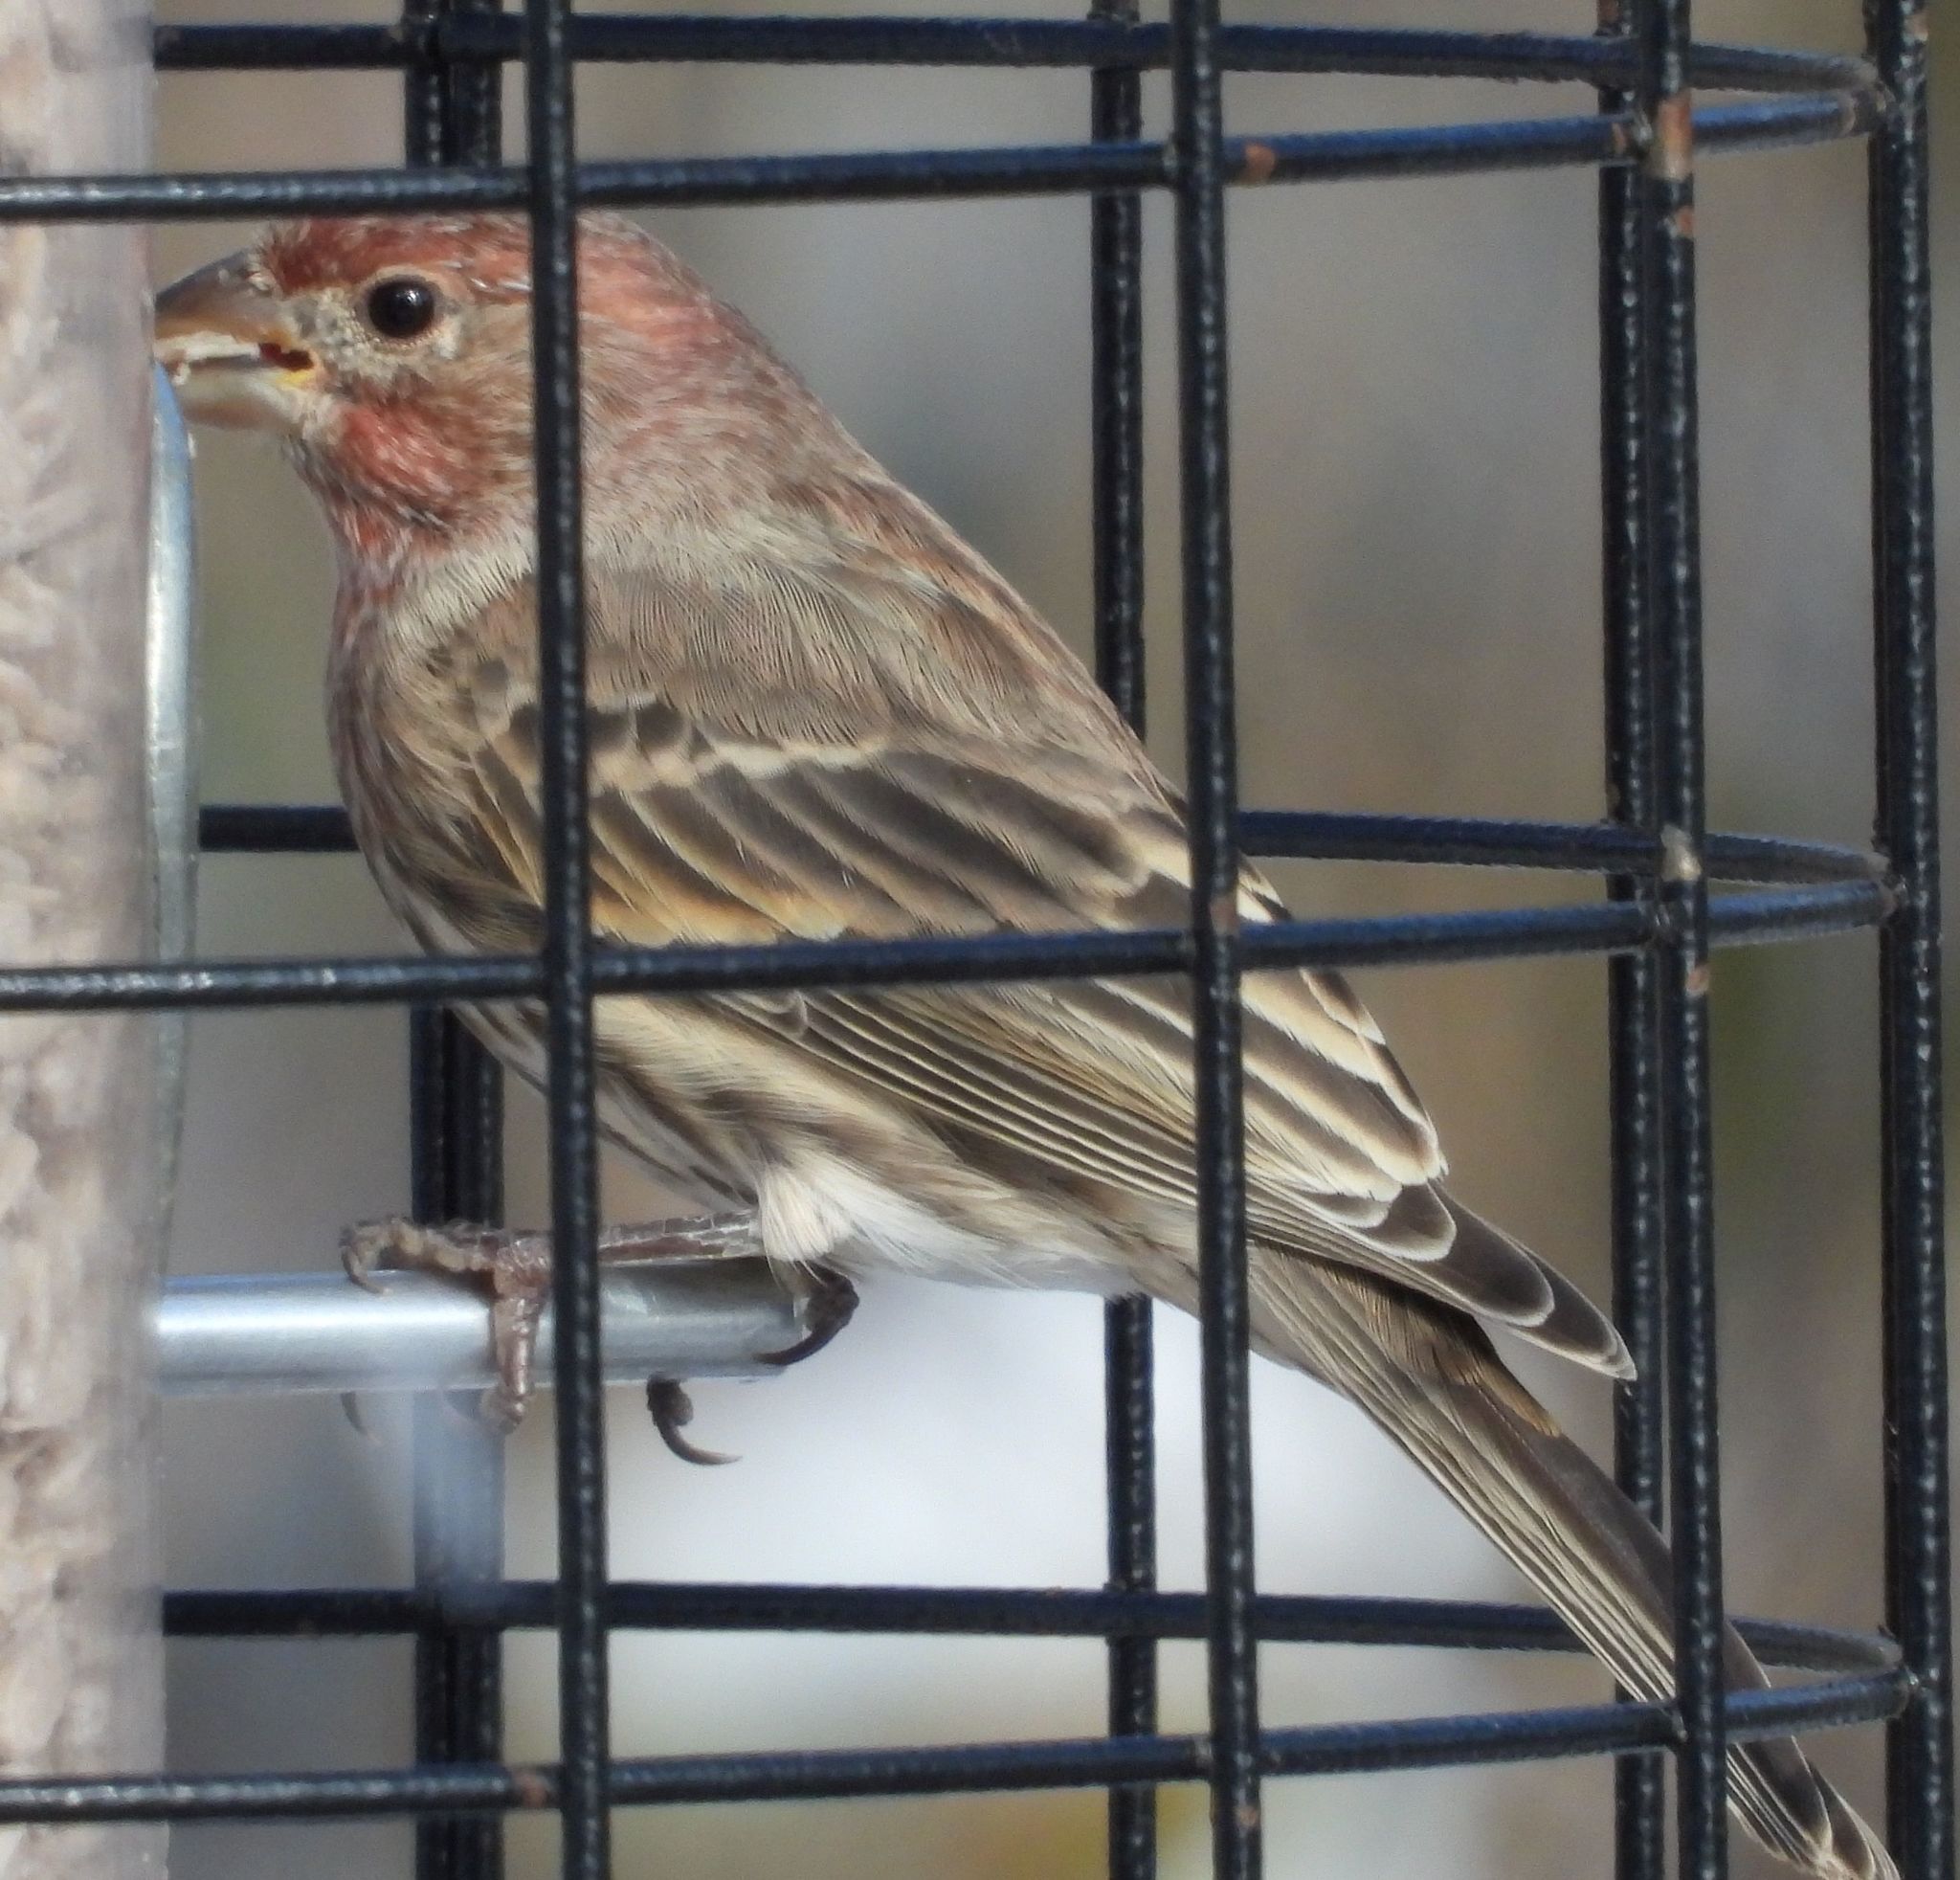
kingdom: Animalia
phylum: Chordata
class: Aves
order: Passeriformes
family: Fringillidae
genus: Haemorhous
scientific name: Haemorhous mexicanus
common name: House finch
